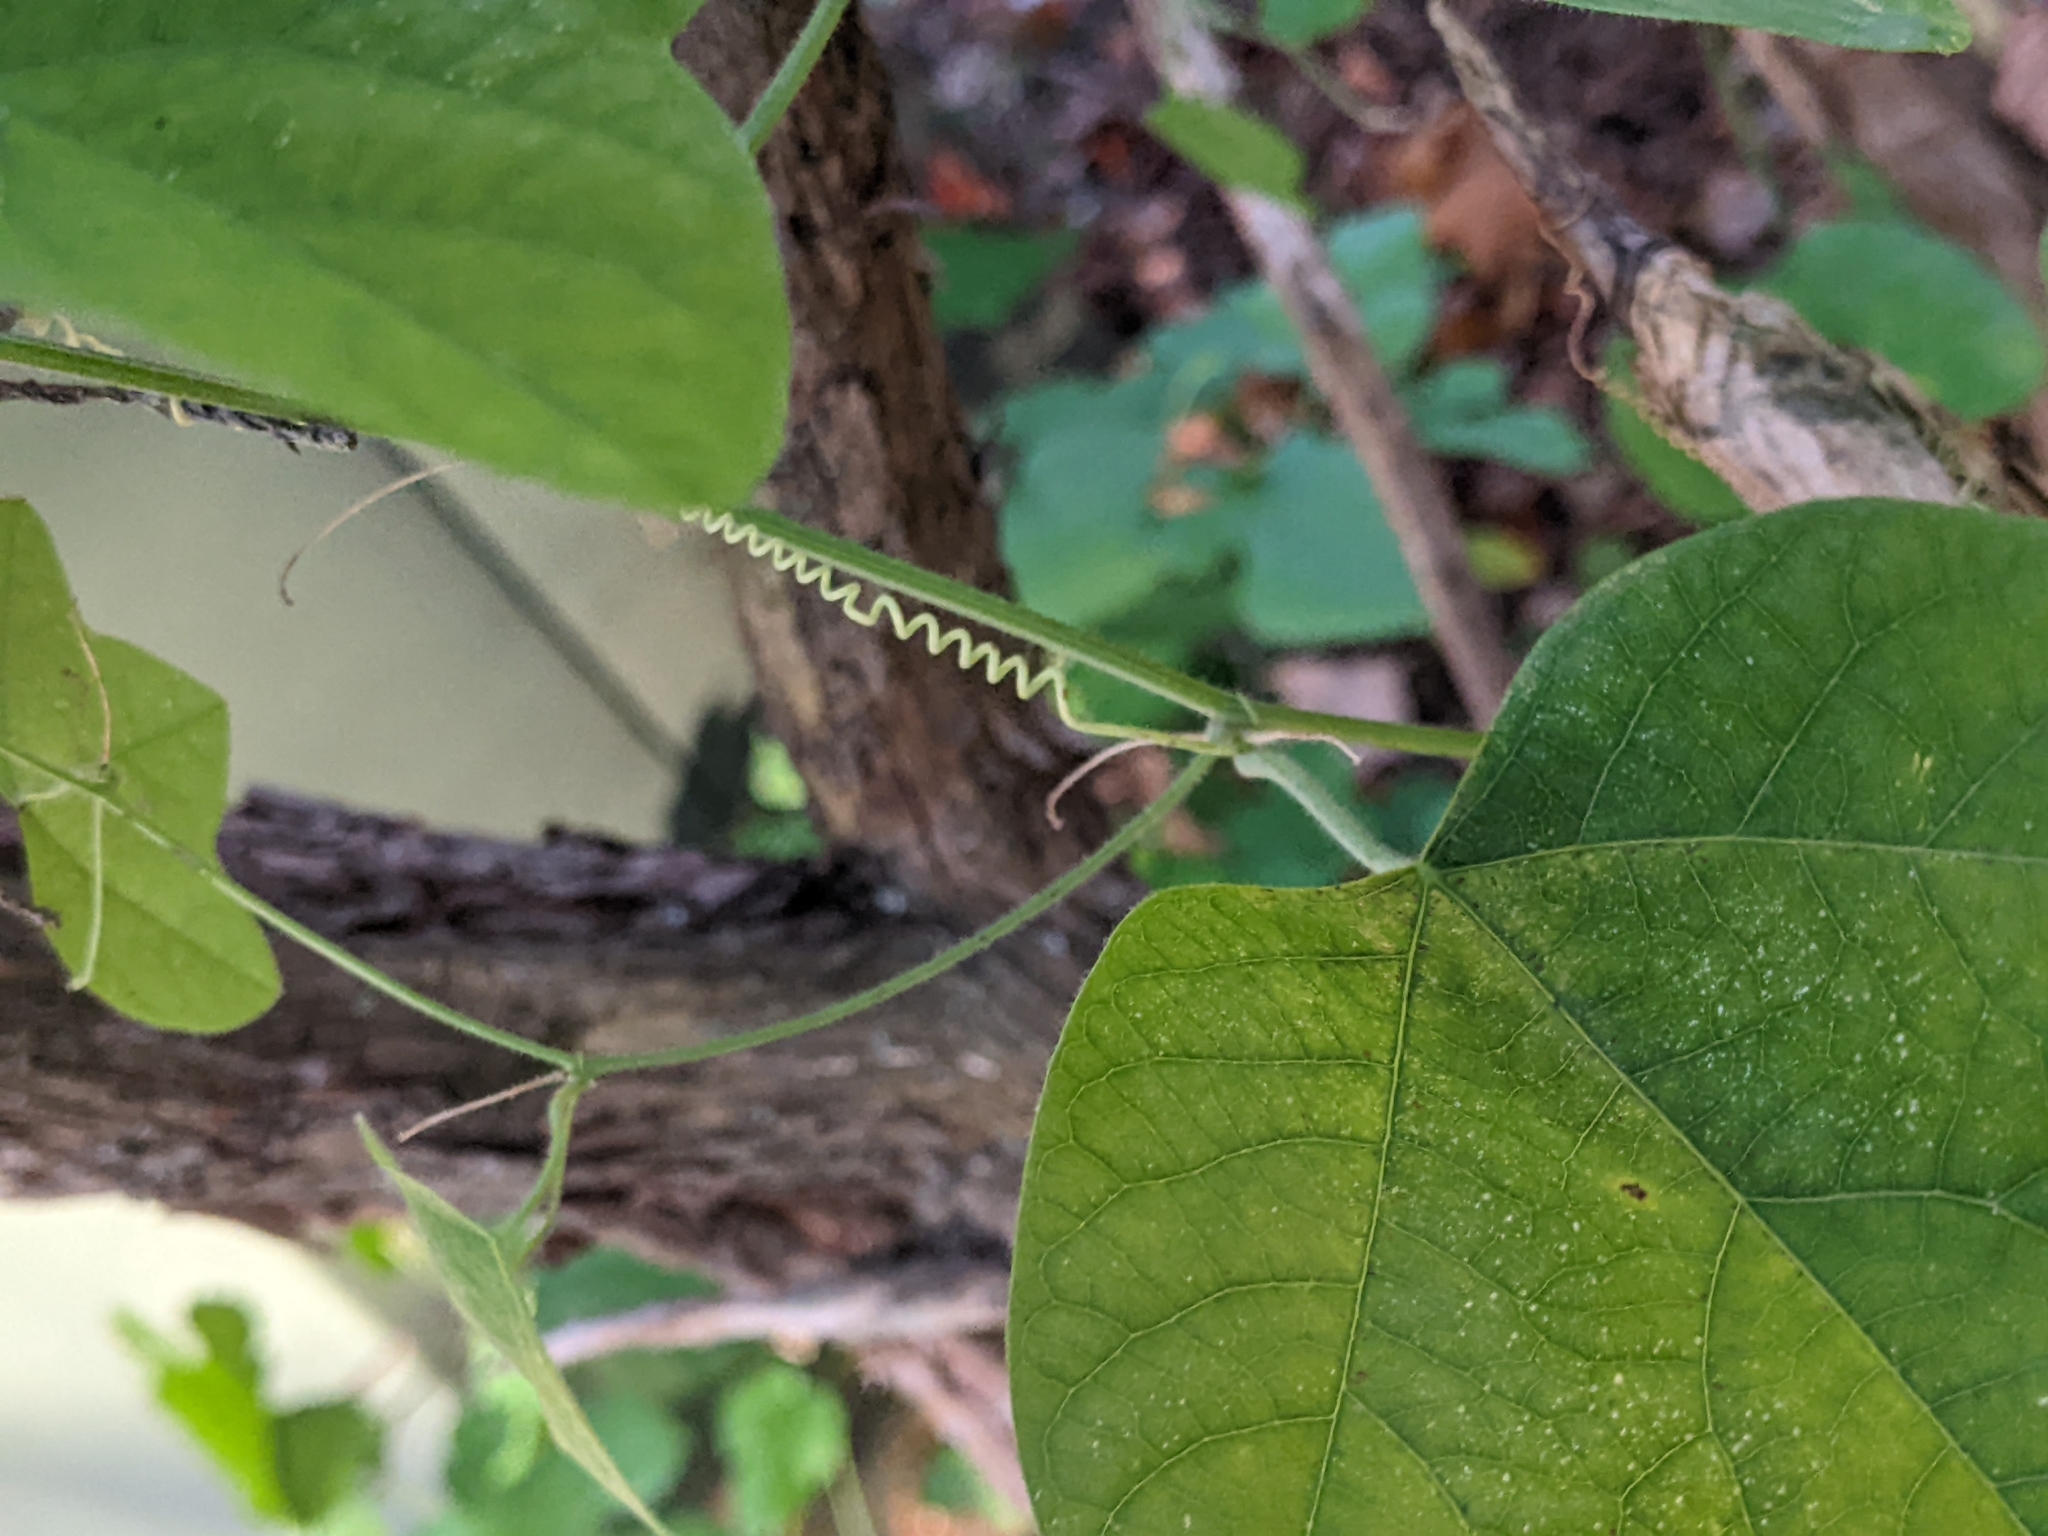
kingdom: Plantae
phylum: Tracheophyta
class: Magnoliopsida
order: Malpighiales
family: Passifloraceae
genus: Passiflora
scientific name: Passiflora lutea
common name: Yellow passionflower
